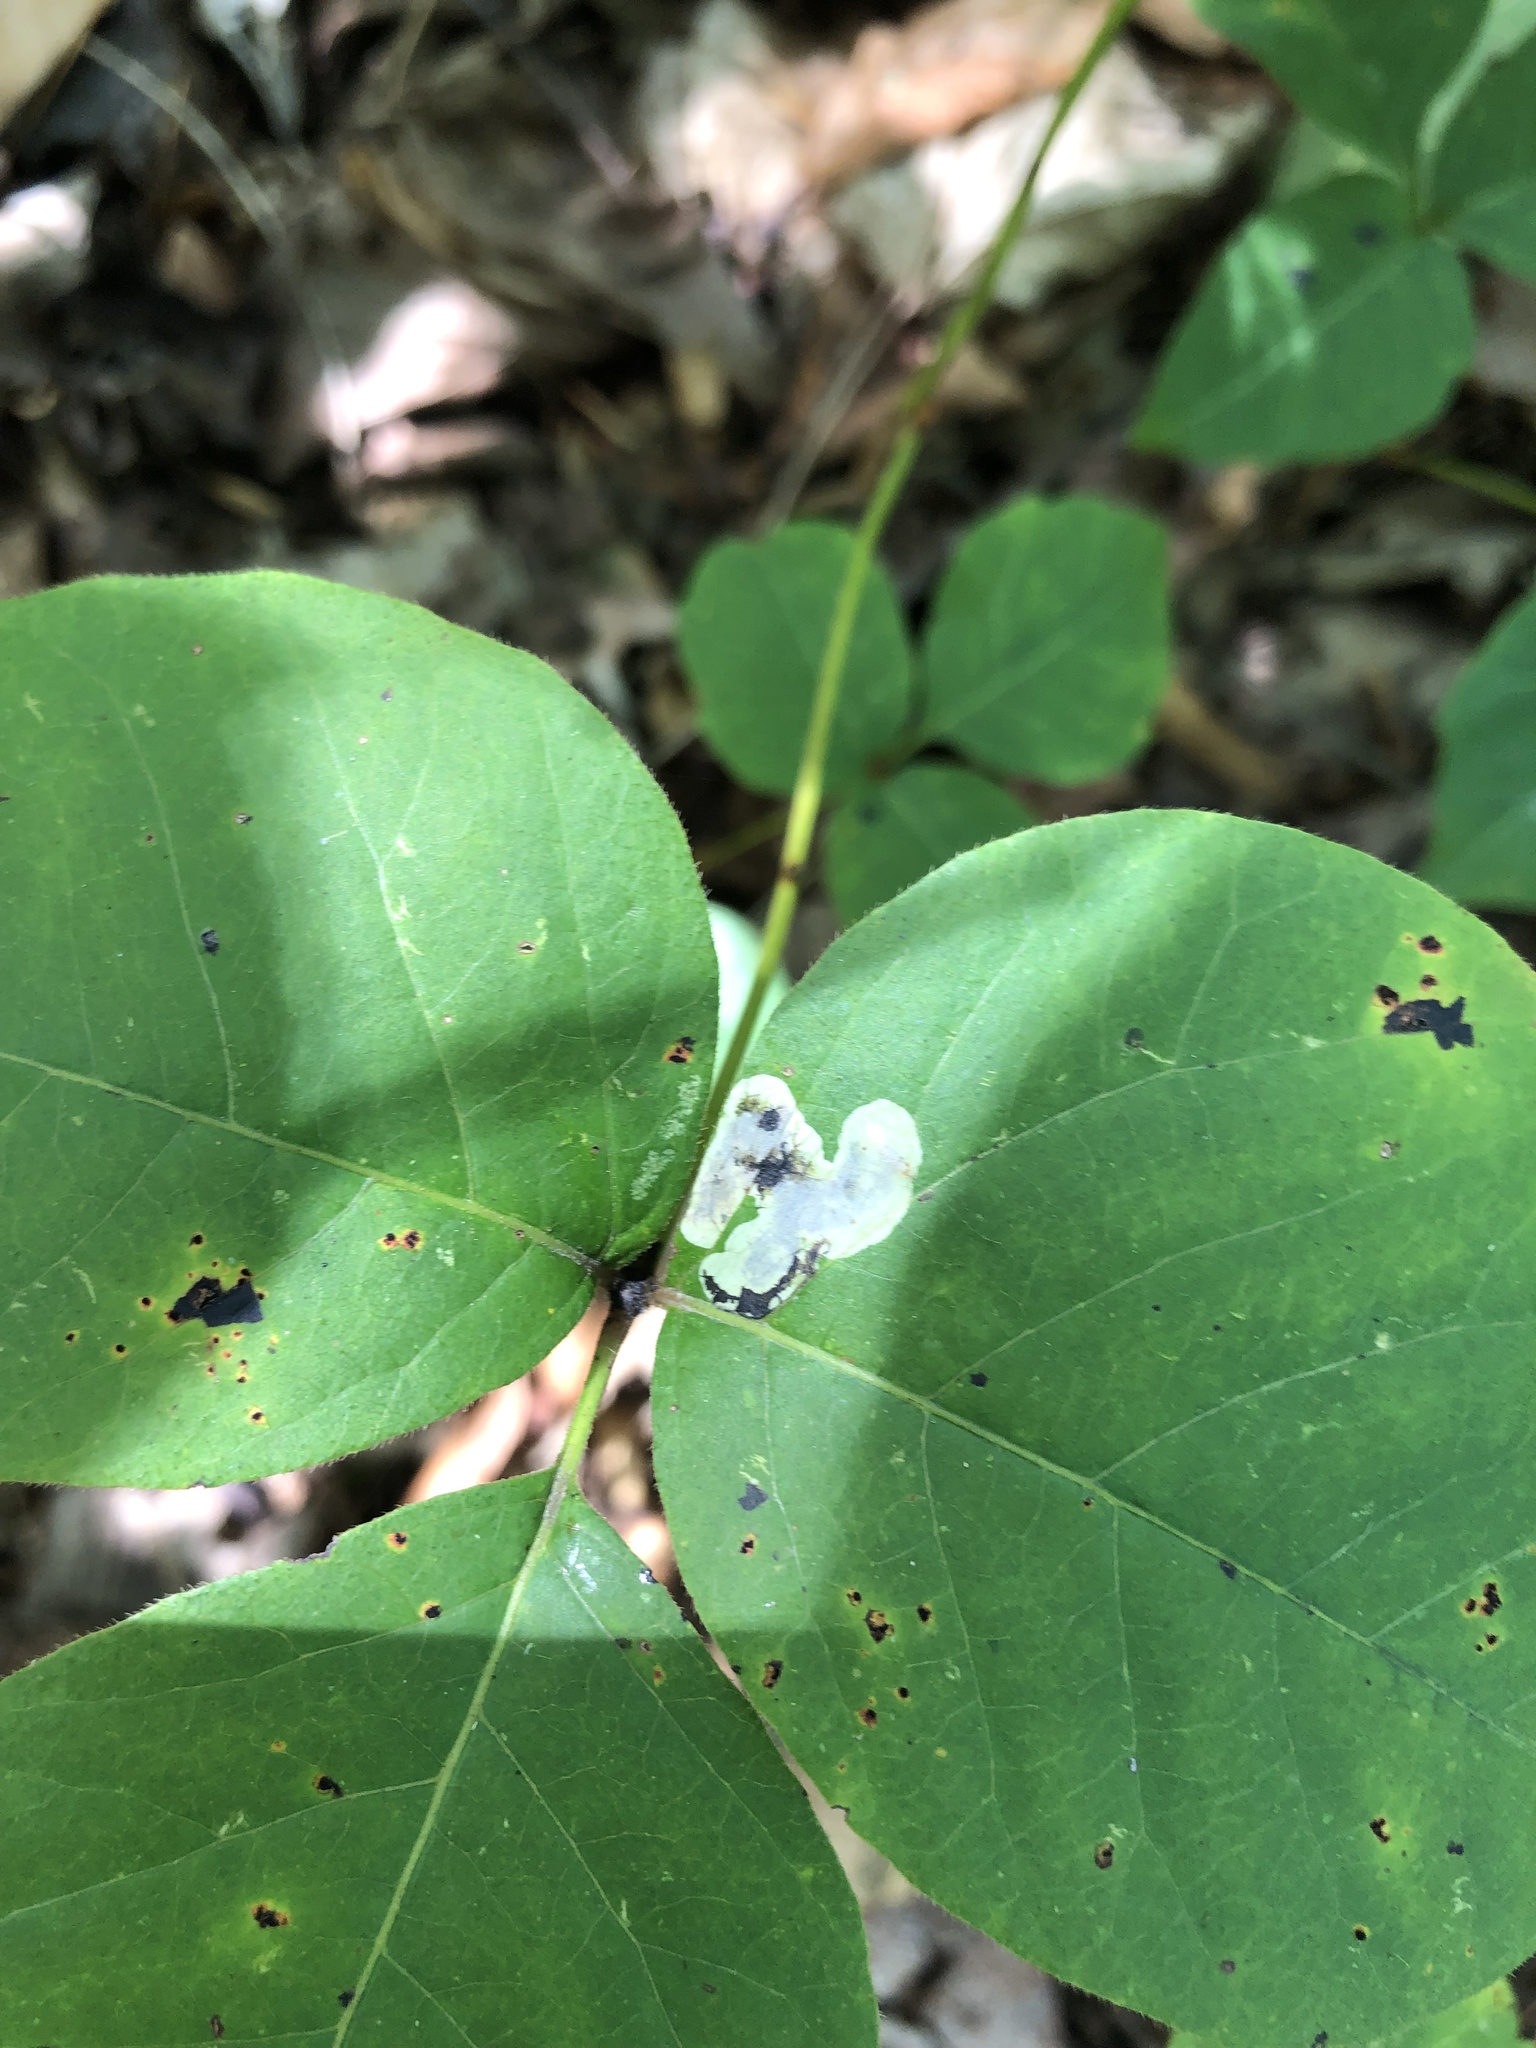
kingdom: Animalia
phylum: Arthropoda
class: Insecta
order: Lepidoptera
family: Gracillariidae
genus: Cameraria
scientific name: Cameraria guttifinitella
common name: Poison ivy leaf-miner moth
